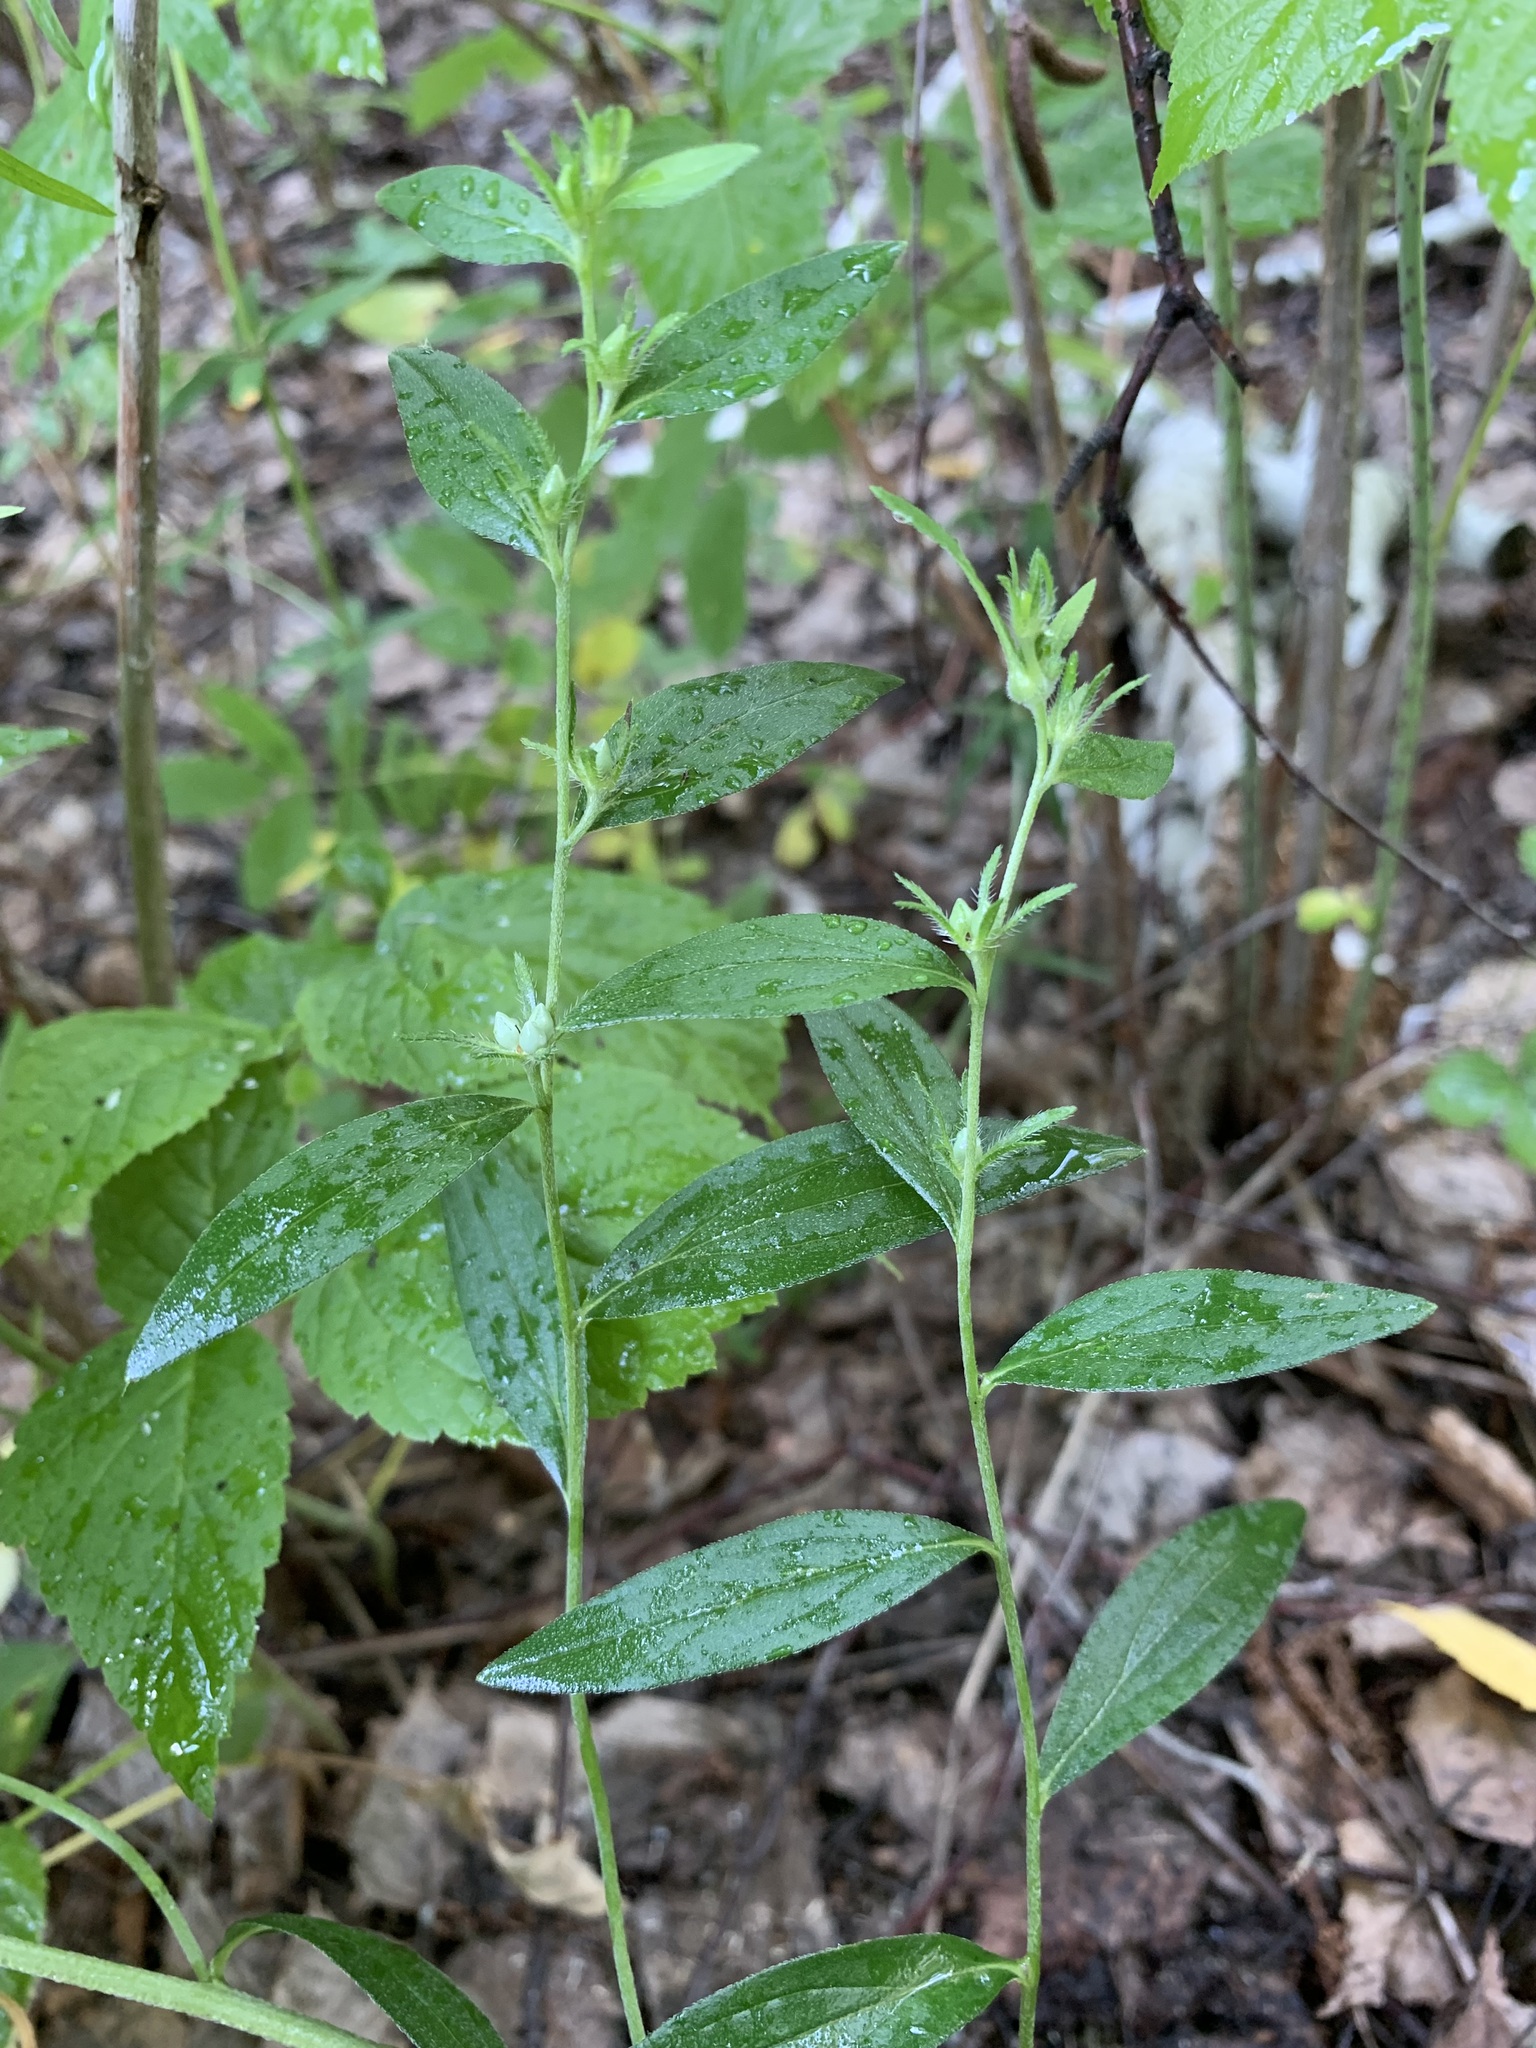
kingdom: Plantae
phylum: Tracheophyta
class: Magnoliopsida
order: Boraginales
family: Boraginaceae
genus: Lithospermum
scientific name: Lithospermum officinale
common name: Common gromwell
